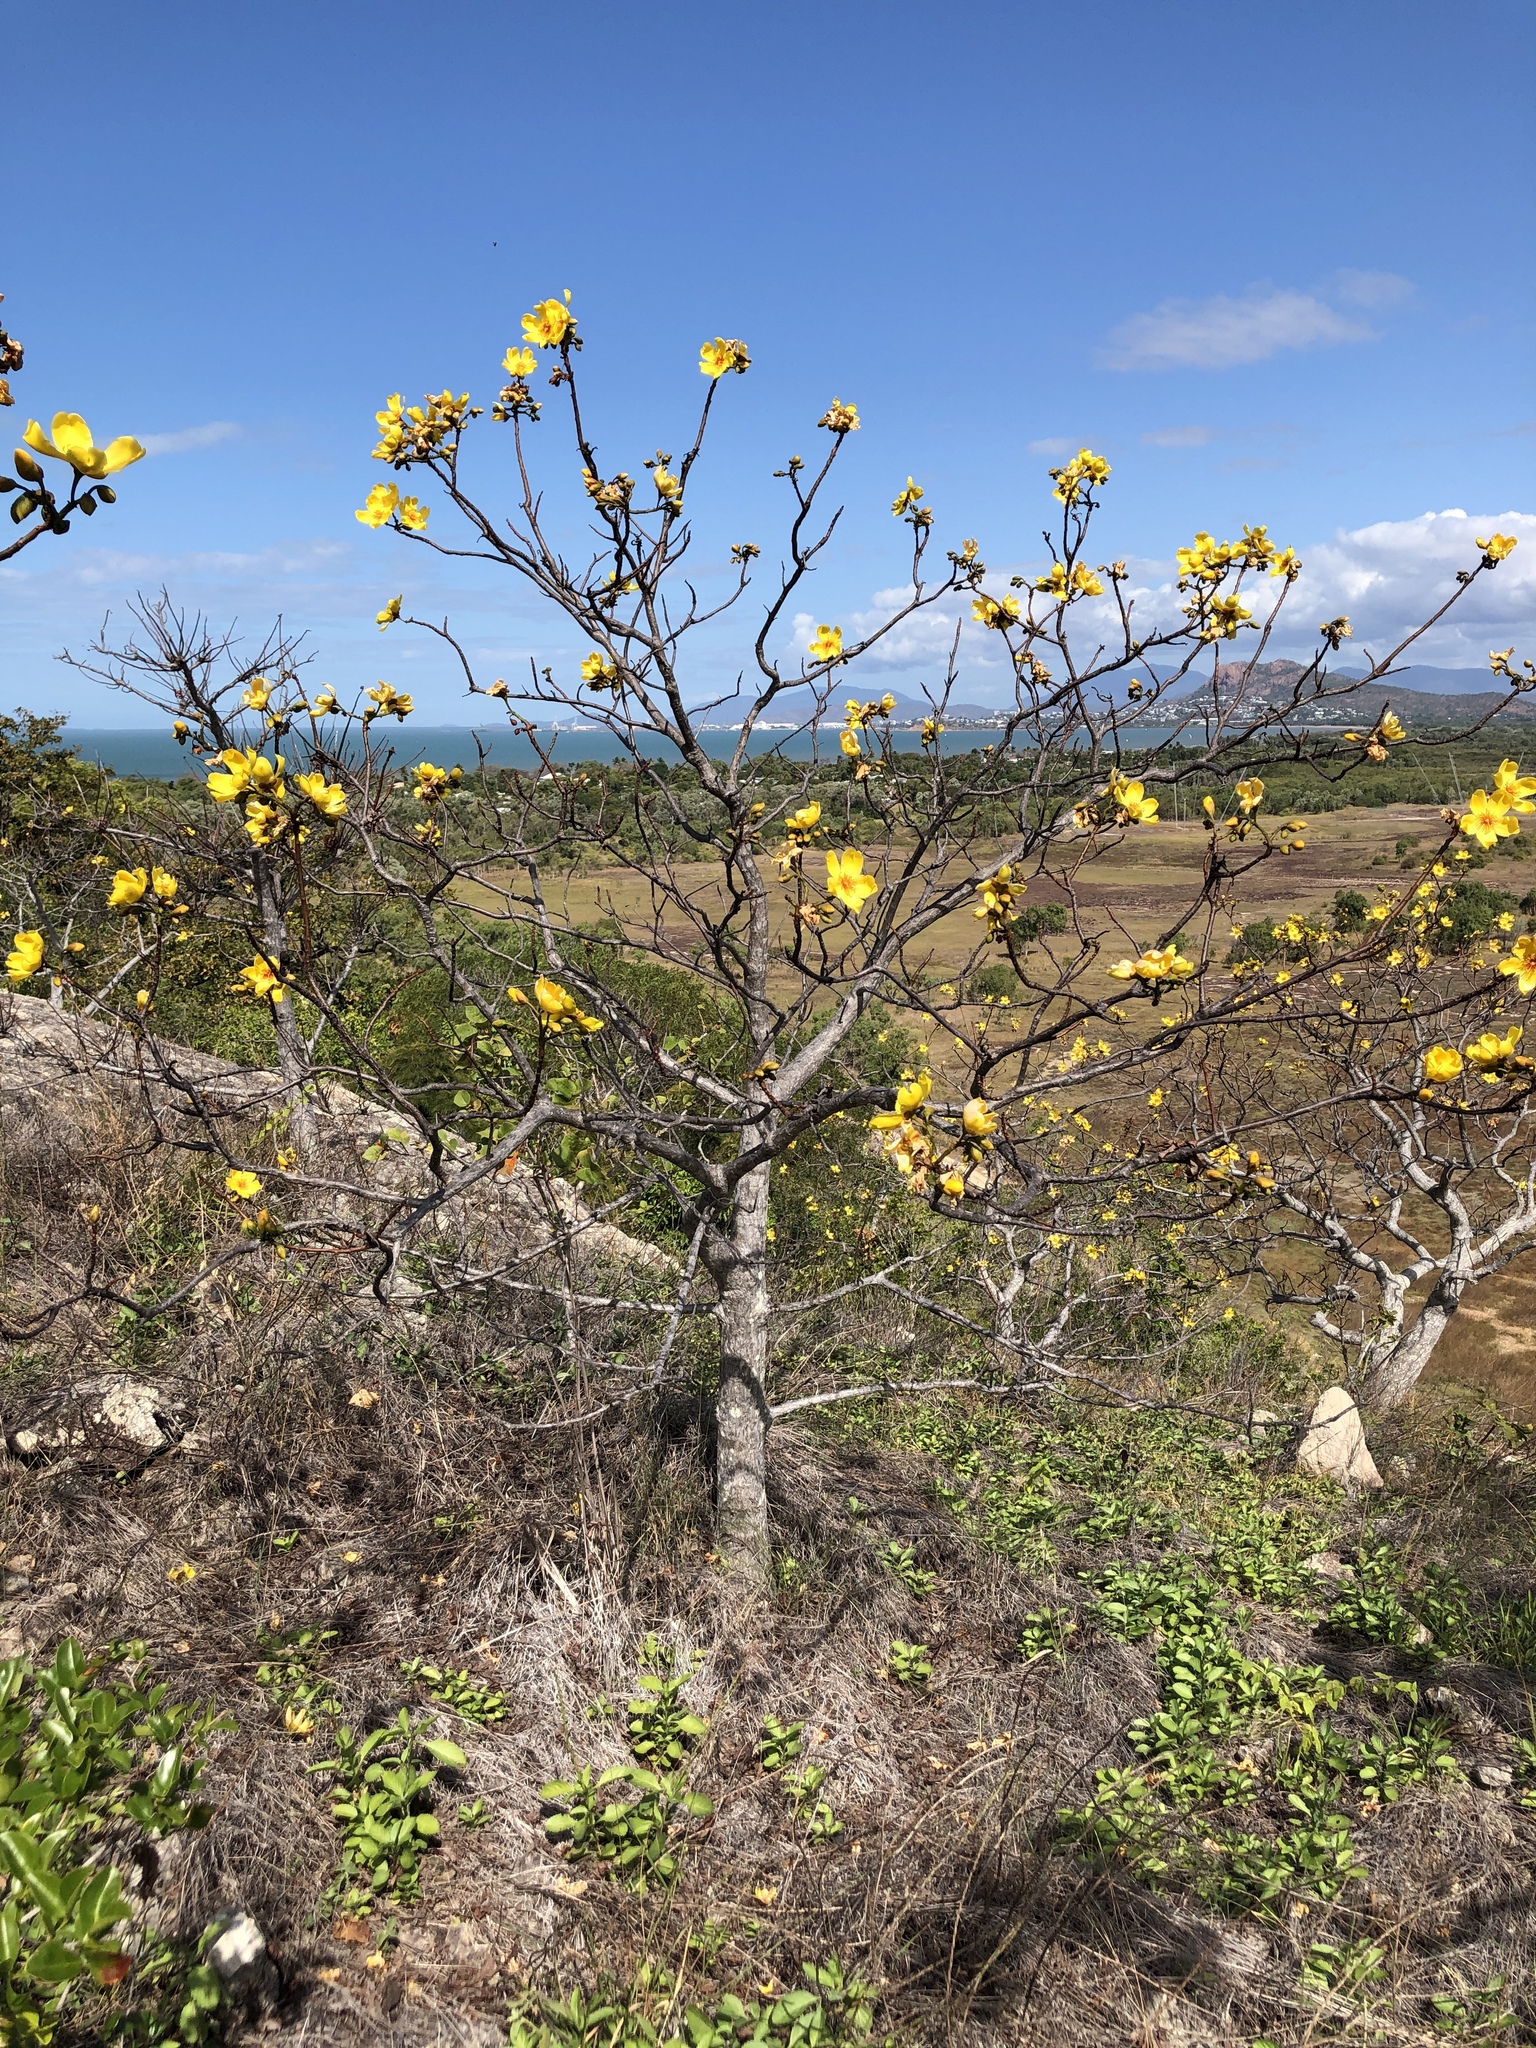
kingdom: Plantae
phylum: Tracheophyta
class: Magnoliopsida
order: Malvales
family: Cochlospermaceae
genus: Cochlospermum
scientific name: Cochlospermum gillivraei
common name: Cottontree
